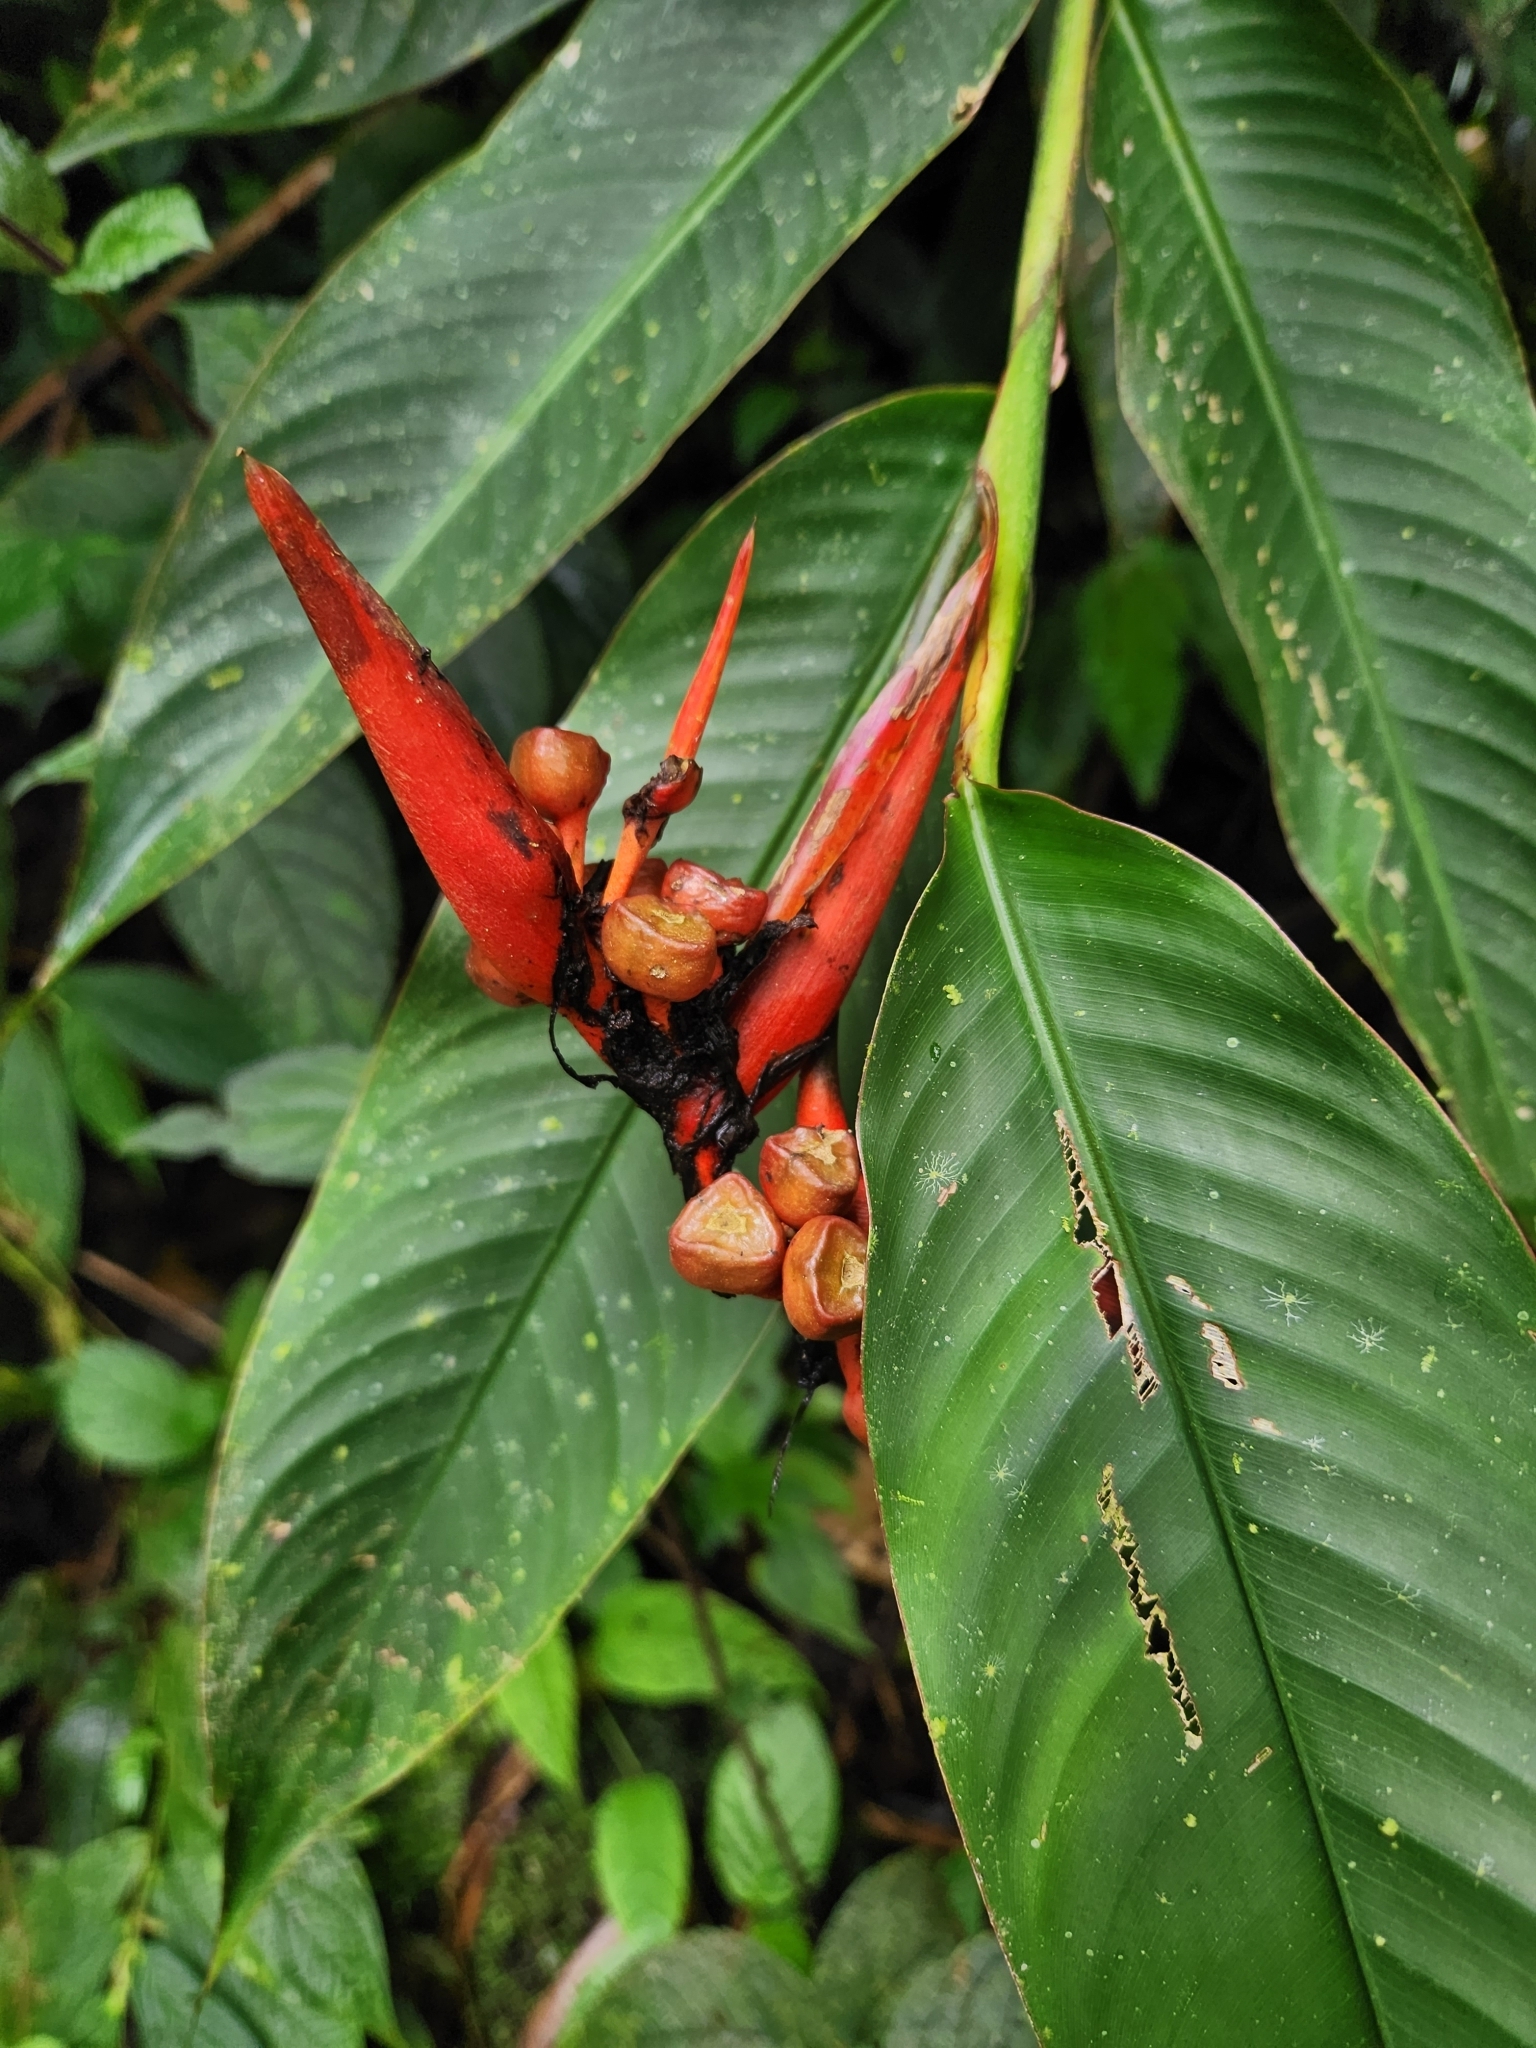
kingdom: Plantae
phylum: Tracheophyta
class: Liliopsida
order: Zingiberales
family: Heliconiaceae
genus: Heliconia
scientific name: Heliconia mathiasiae
